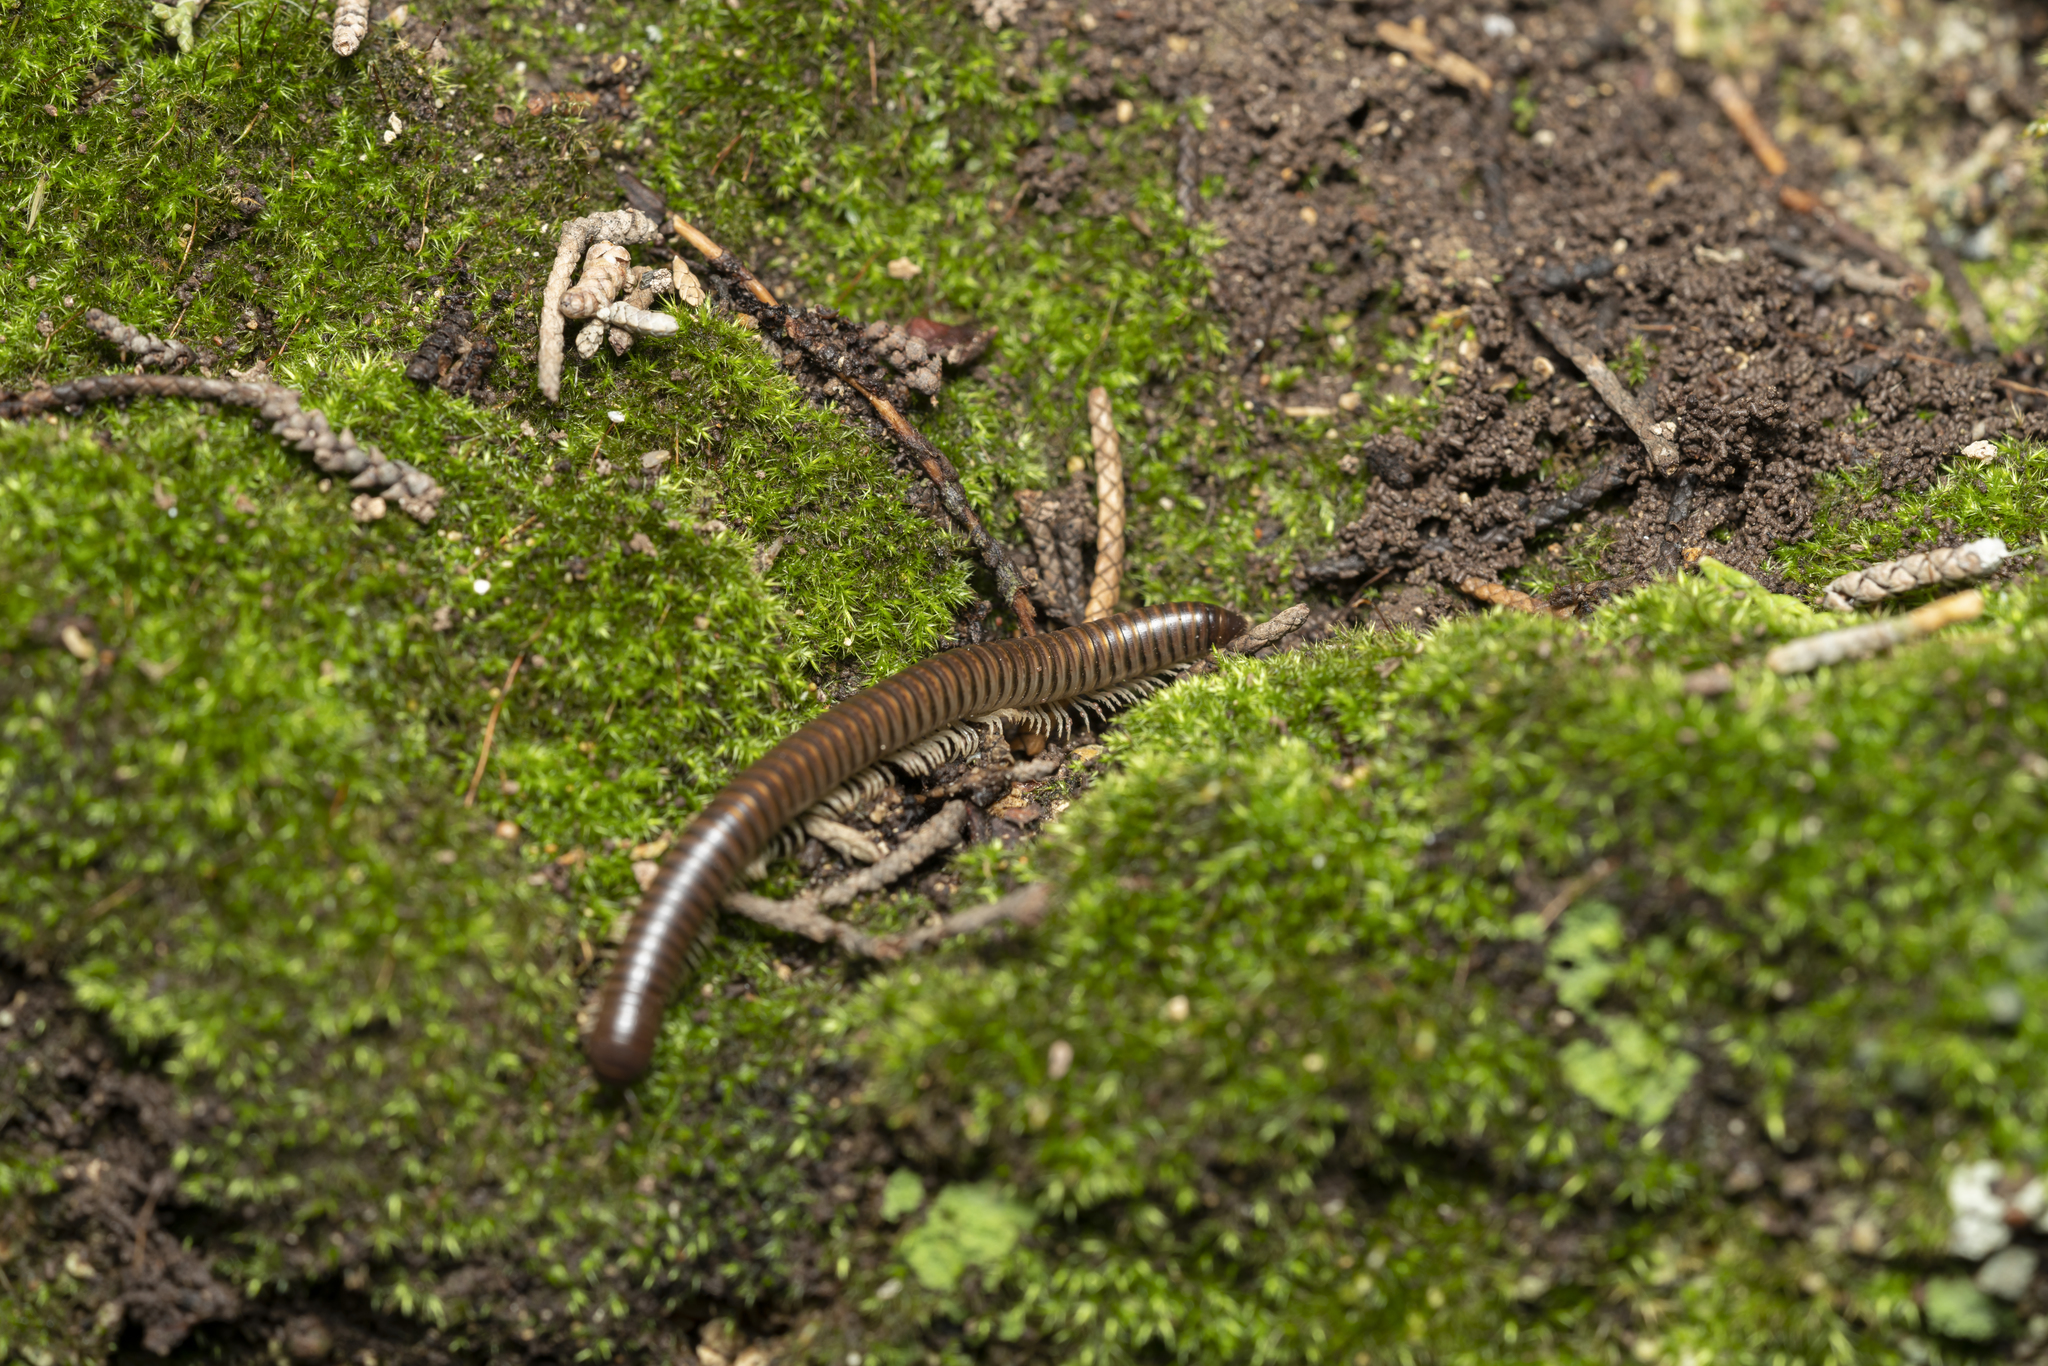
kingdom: Animalia
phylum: Arthropoda
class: Diplopoda
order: Julida
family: Julidae
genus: Pachyiulus
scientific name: Pachyiulus asiaeminoris
